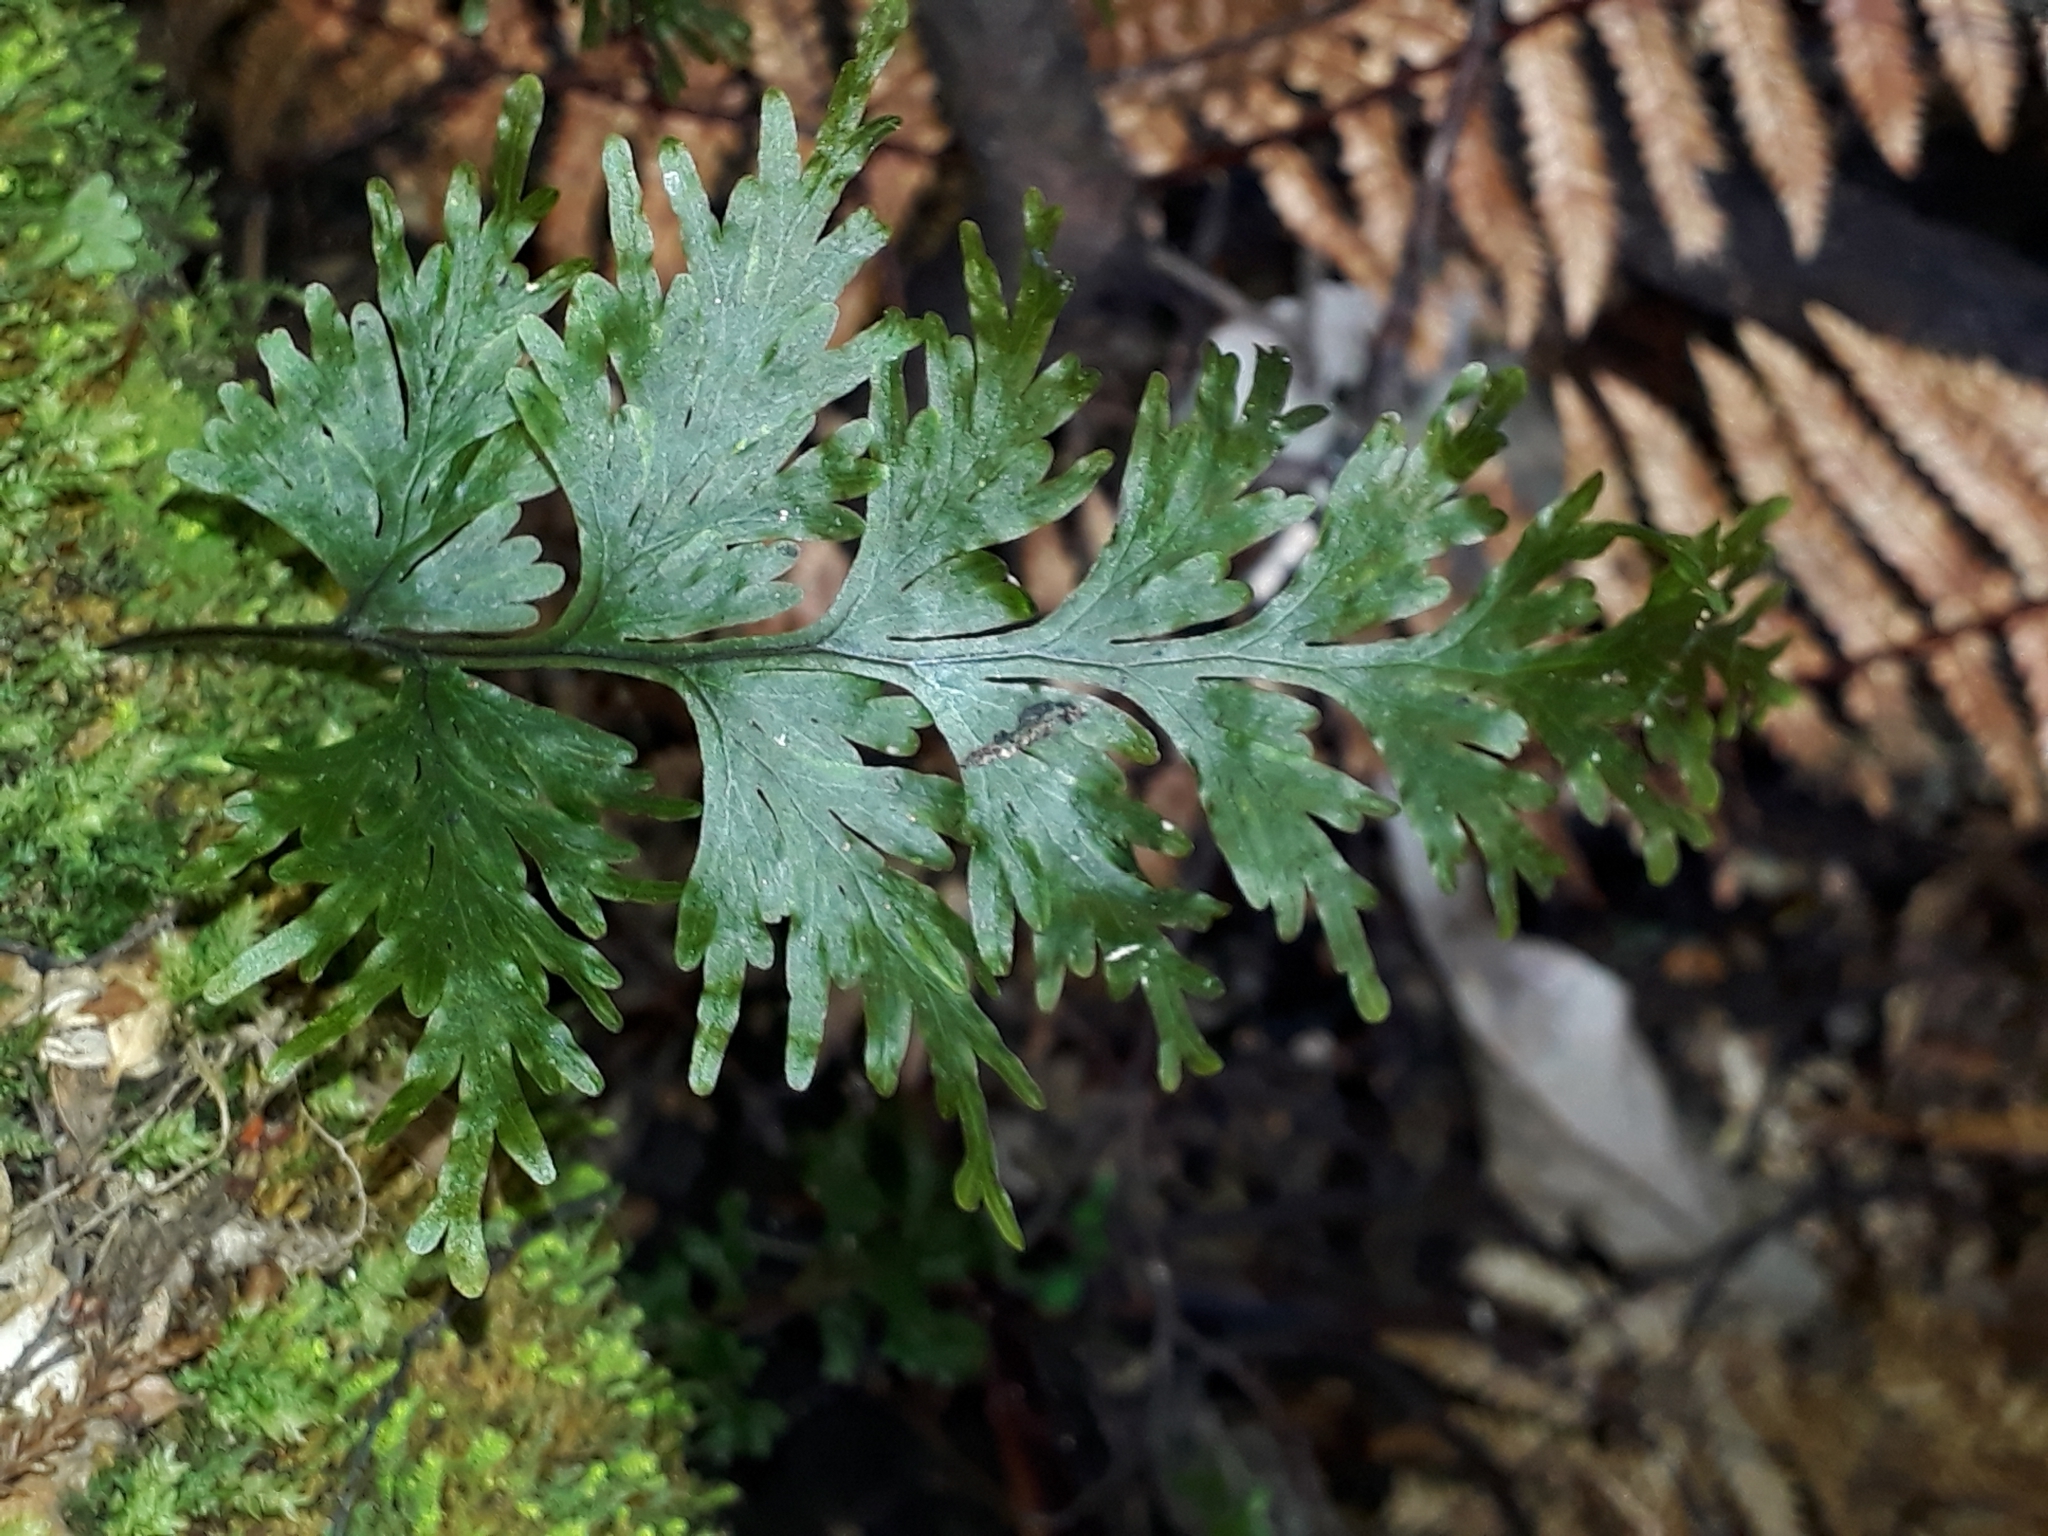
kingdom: Plantae
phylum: Tracheophyta
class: Polypodiopsida
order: Hymenophyllales
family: Hymenophyllaceae
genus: Hymenophyllum
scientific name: Hymenophyllum dilatatum
